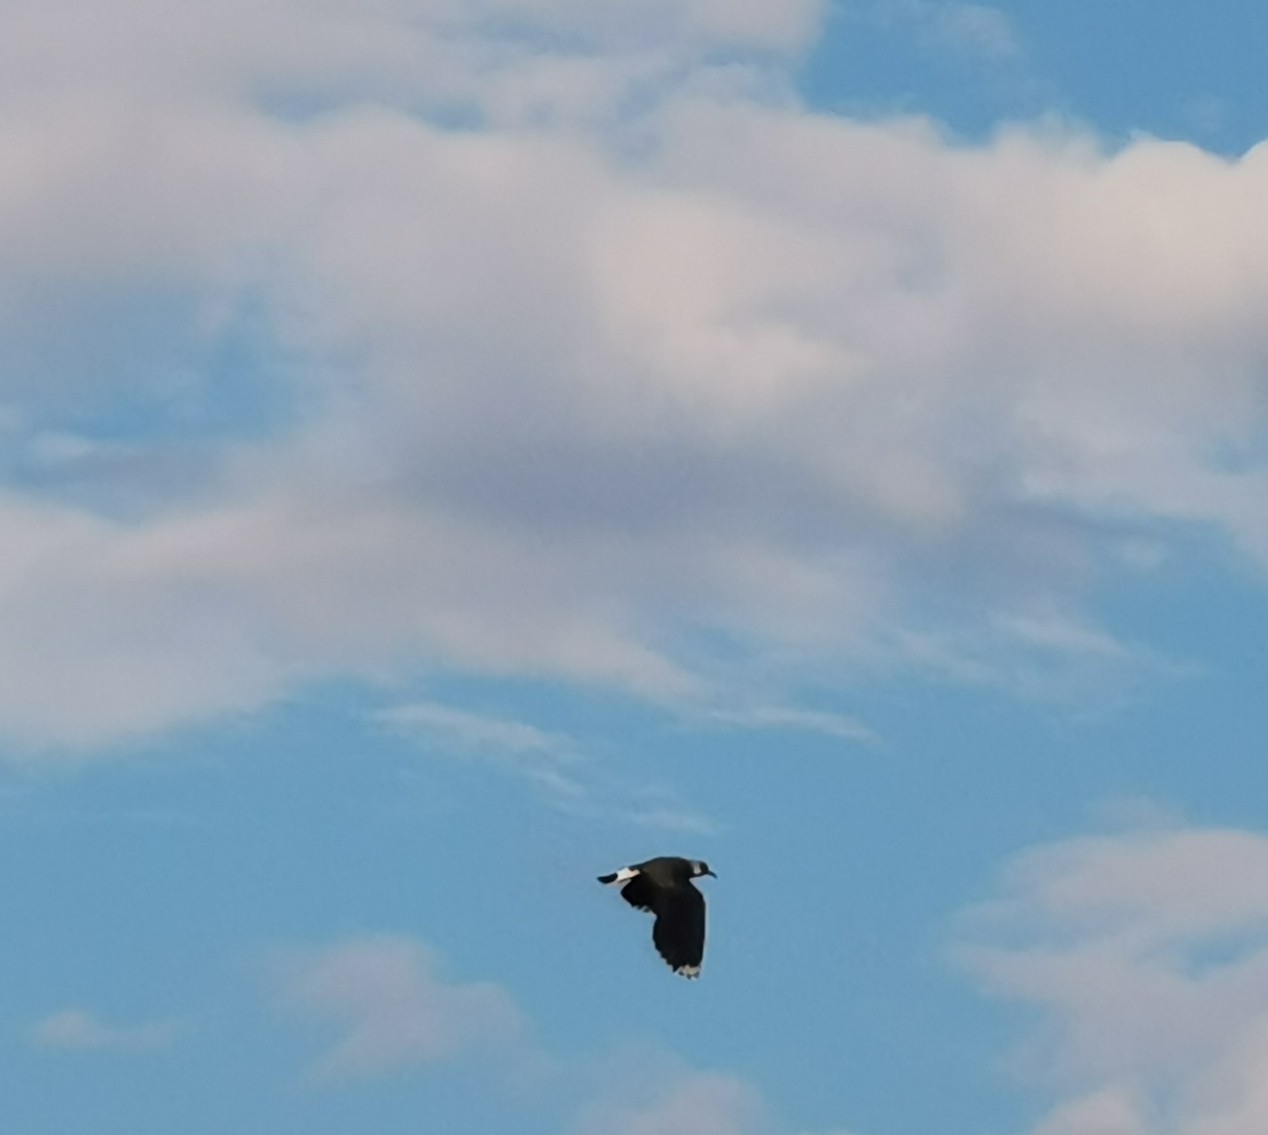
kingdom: Animalia
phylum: Chordata
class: Aves
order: Charadriiformes
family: Charadriidae
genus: Vanellus
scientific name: Vanellus vanellus
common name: Northern lapwing
